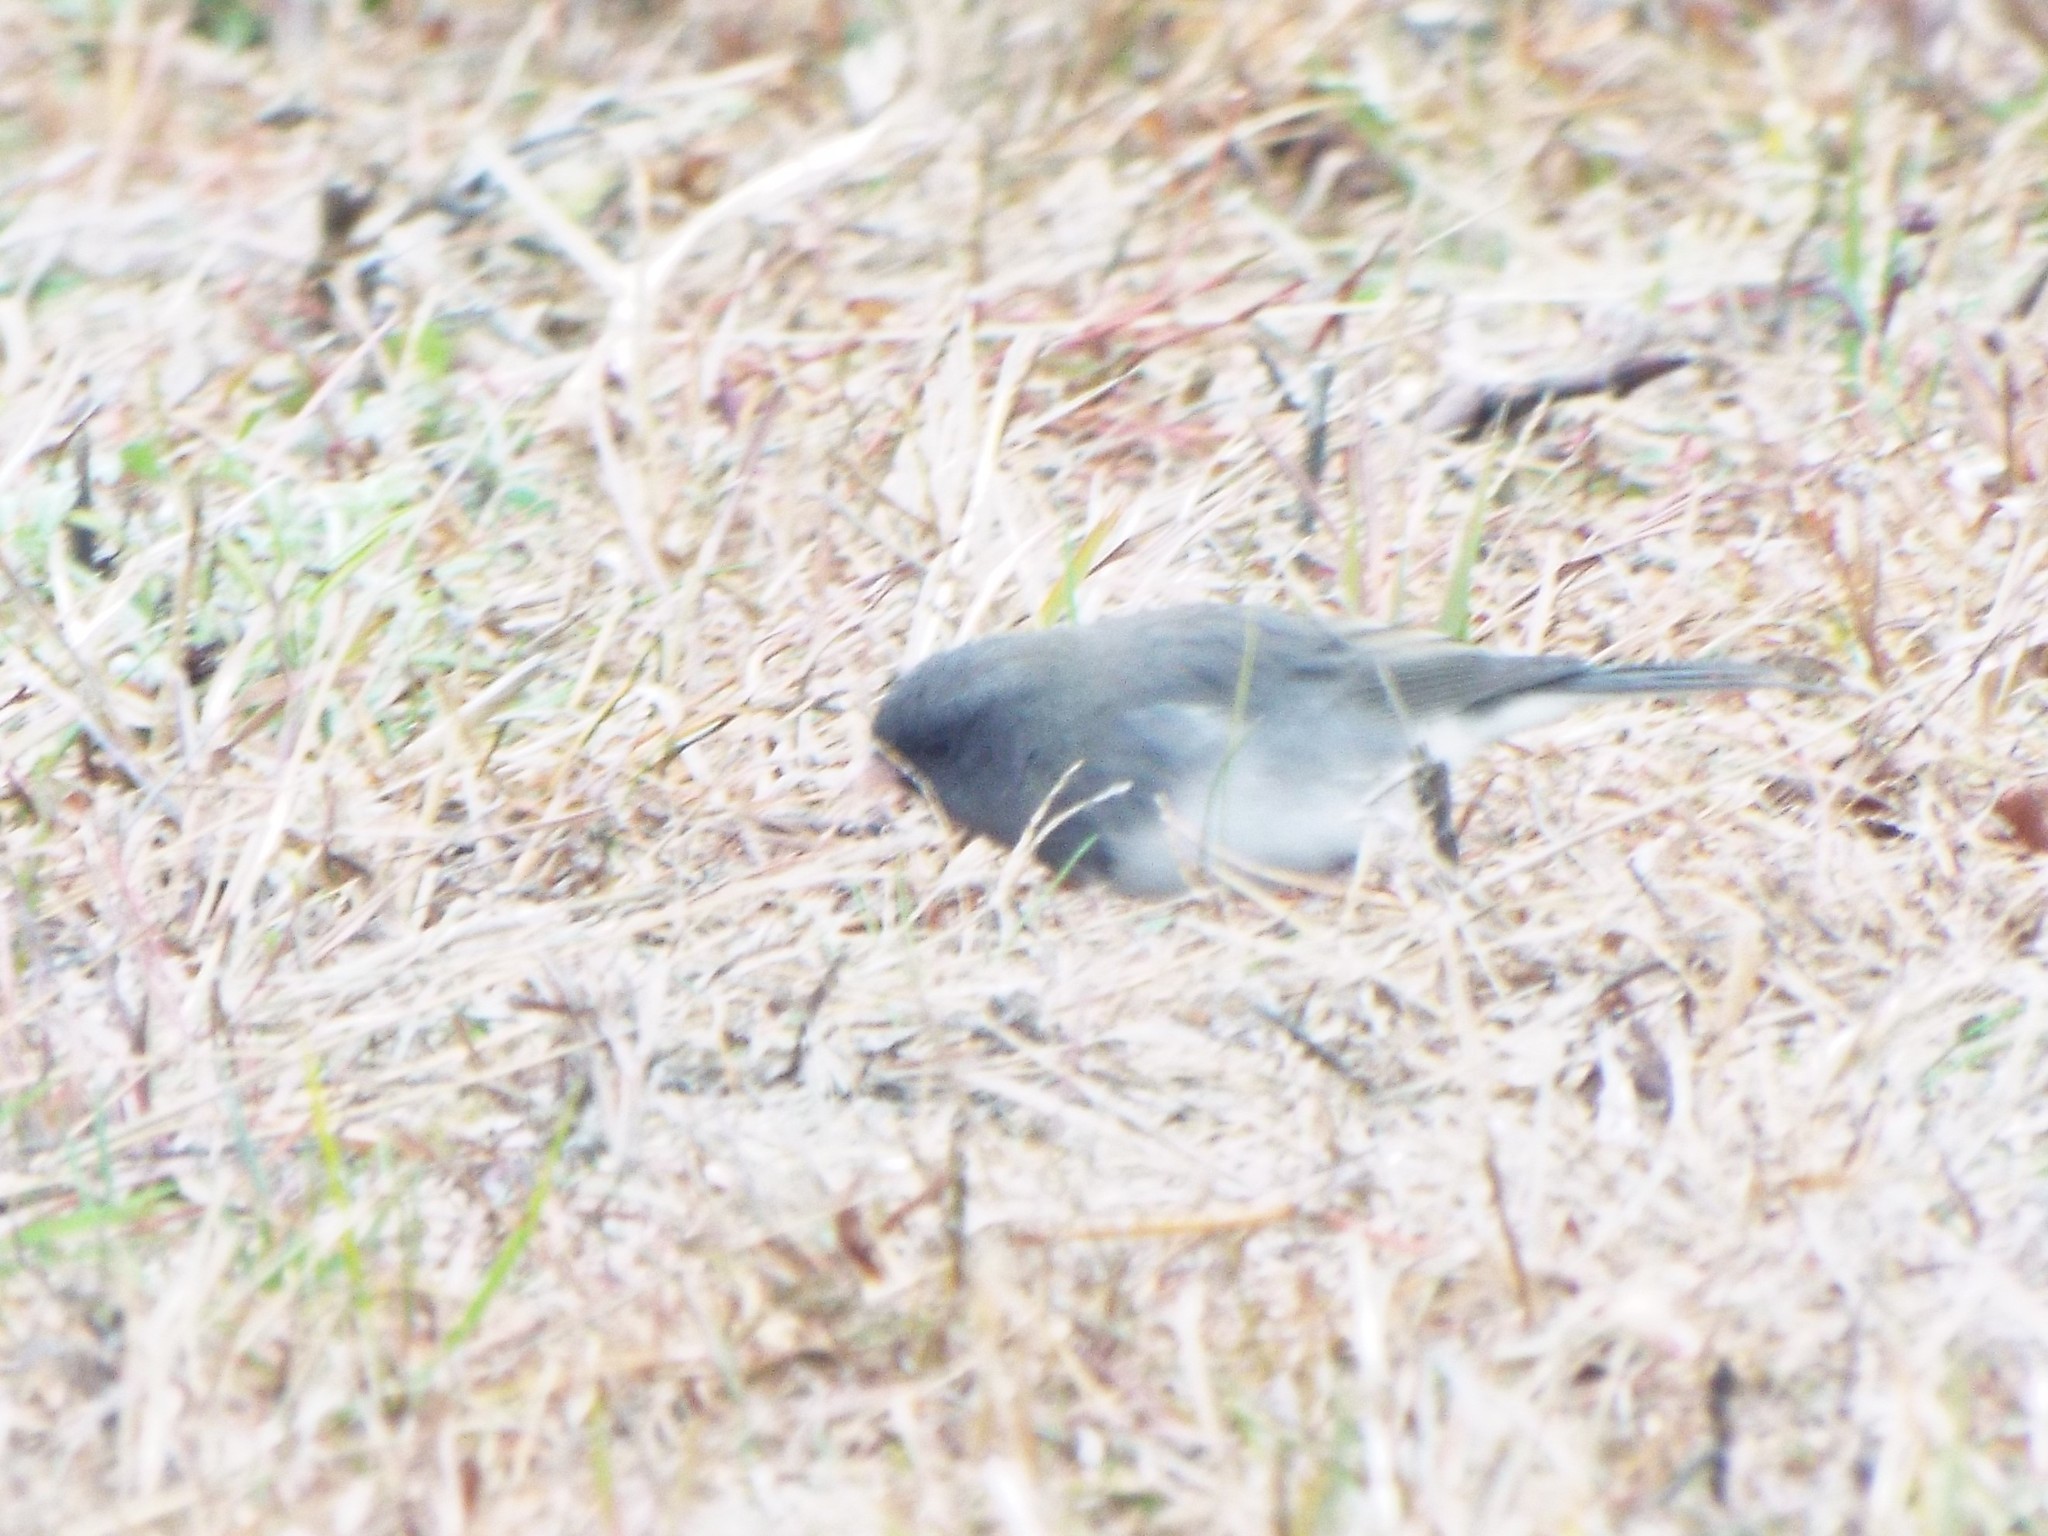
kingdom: Animalia
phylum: Chordata
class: Aves
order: Passeriformes
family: Passerellidae
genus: Junco
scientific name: Junco hyemalis
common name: Dark-eyed junco
